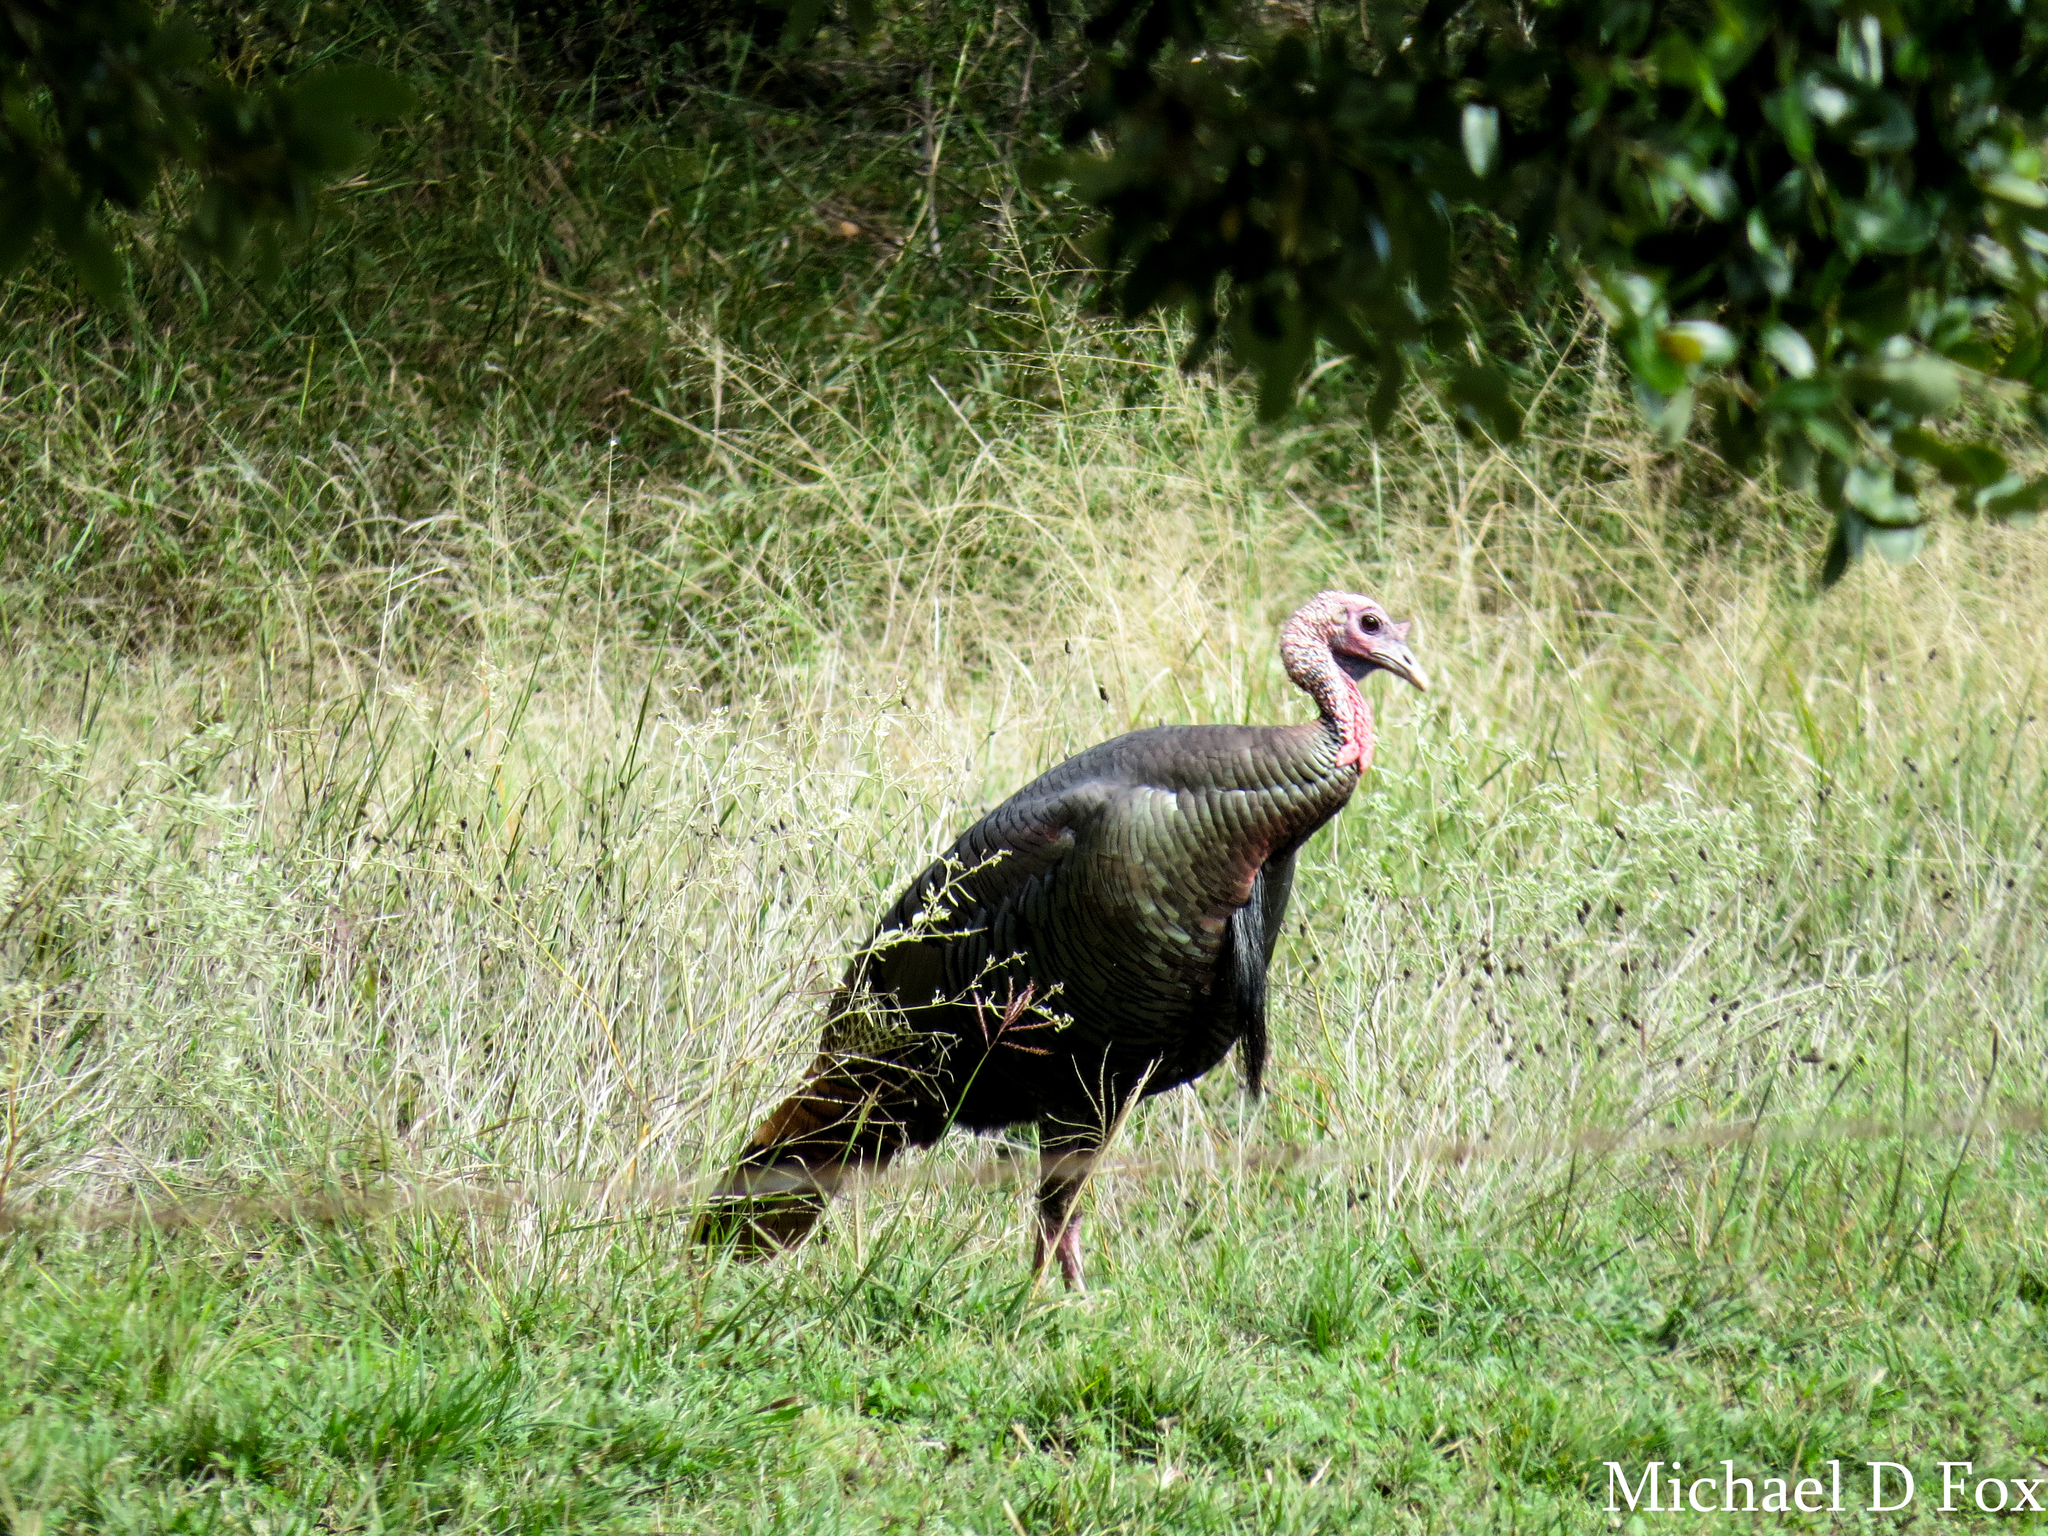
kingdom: Animalia
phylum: Chordata
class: Aves
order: Galliformes
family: Phasianidae
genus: Meleagris
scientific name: Meleagris gallopavo
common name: Wild turkey
